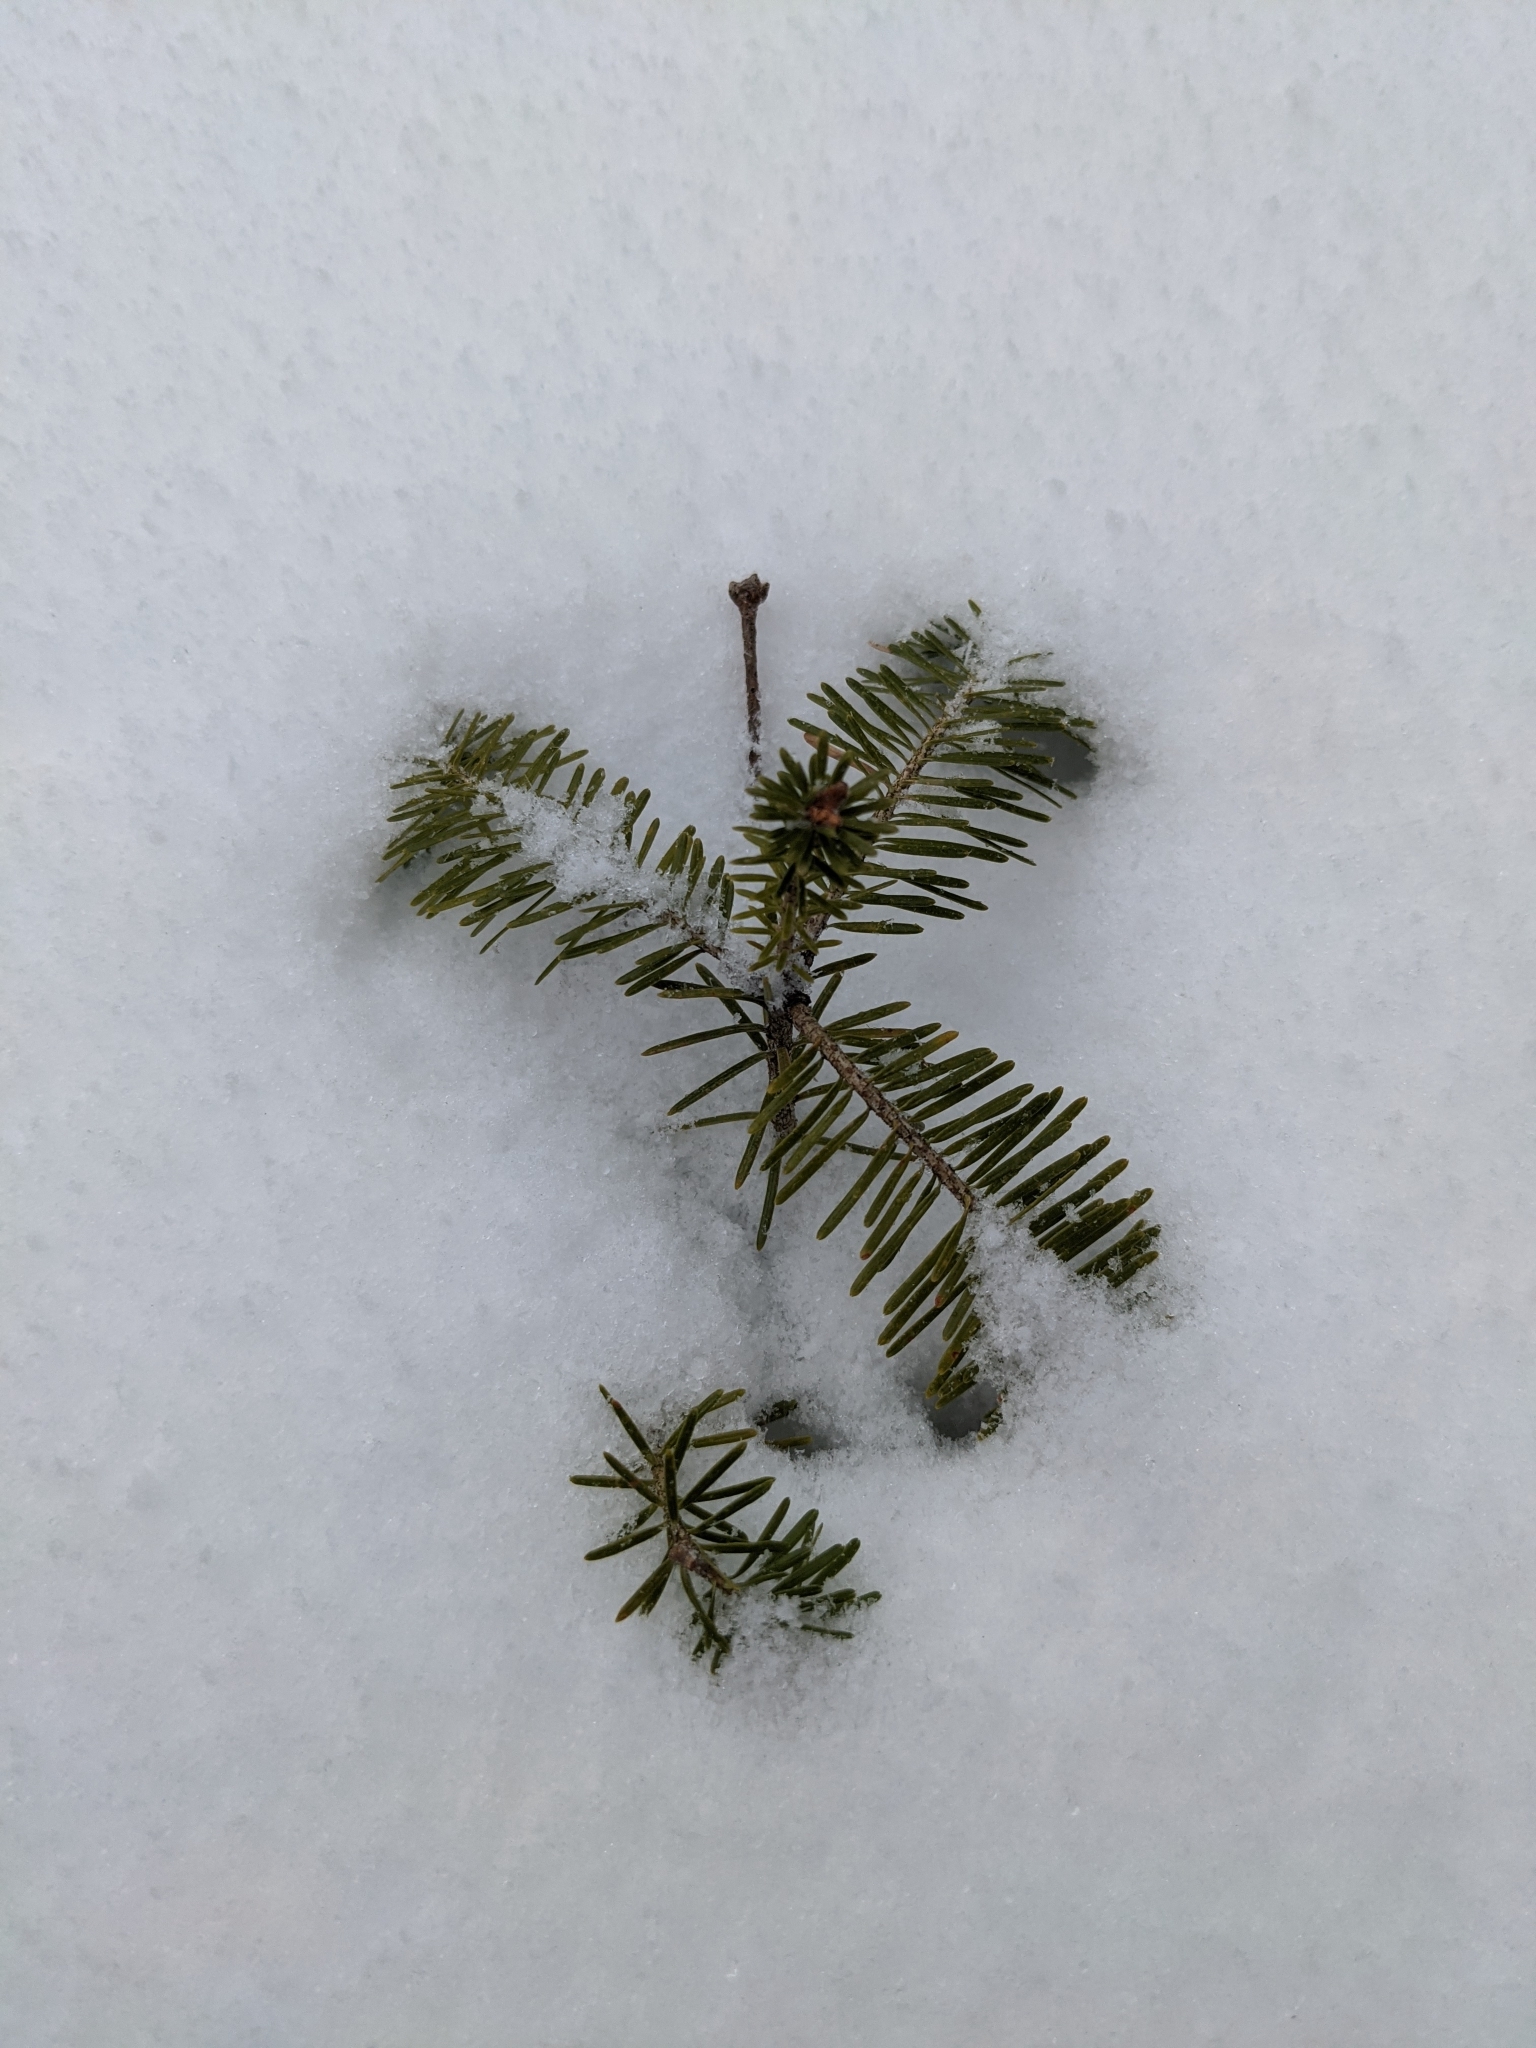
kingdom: Plantae
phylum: Tracheophyta
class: Pinopsida
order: Pinales
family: Pinaceae
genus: Abies
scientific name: Abies balsamea
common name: Balsam fir
